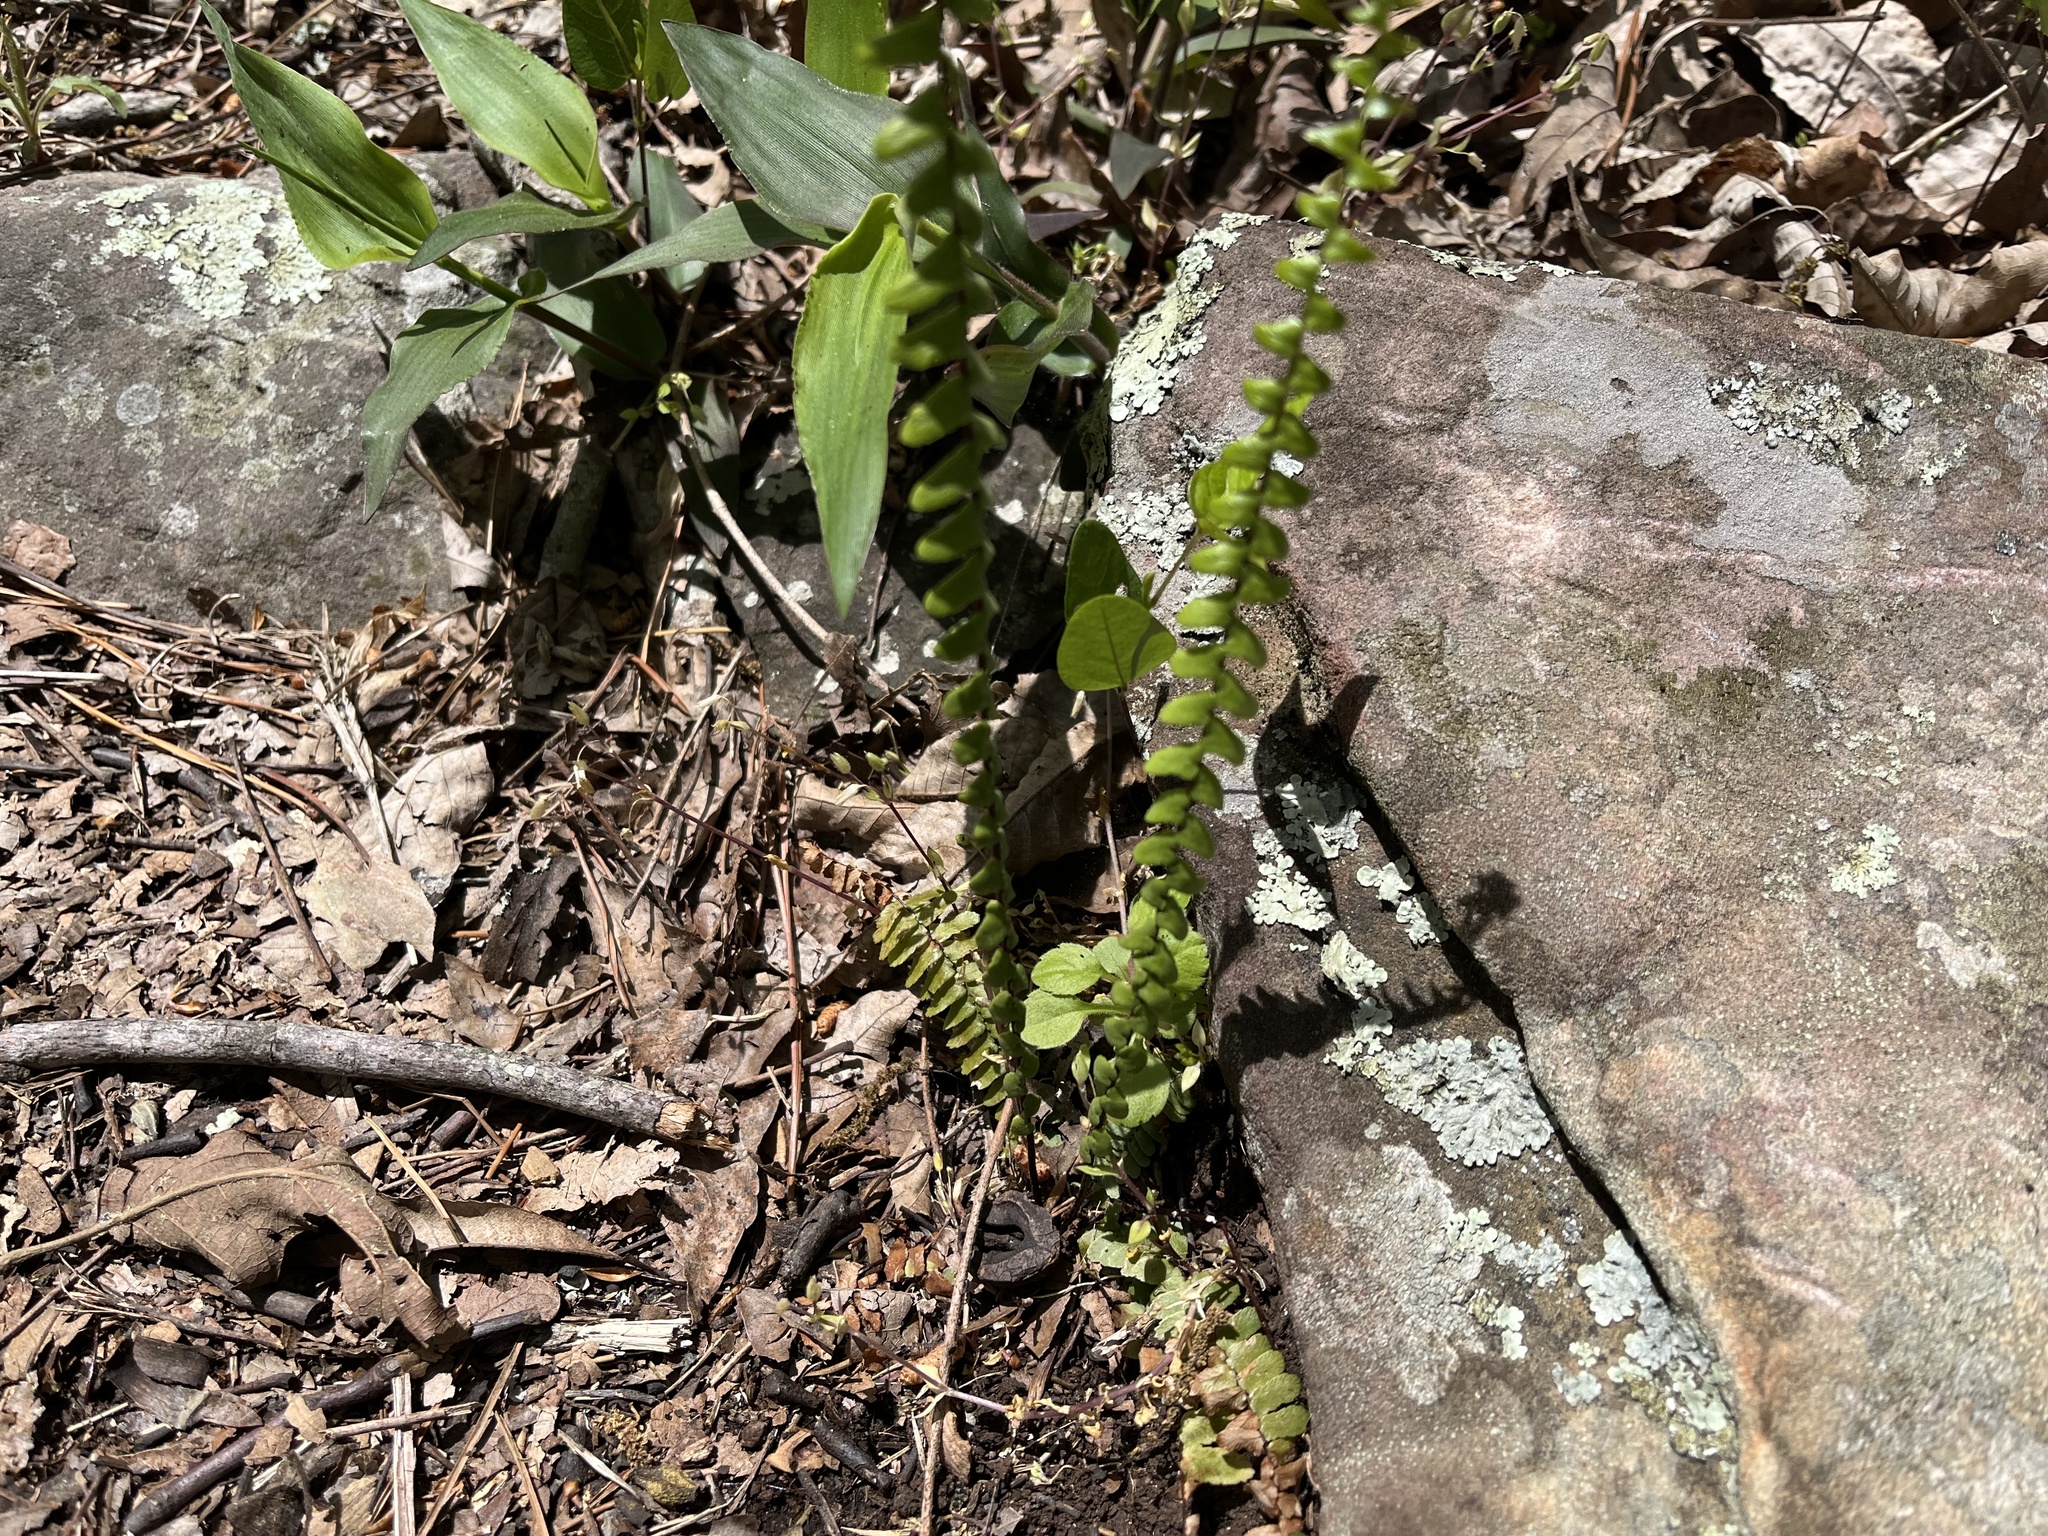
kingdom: Plantae
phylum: Tracheophyta
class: Polypodiopsida
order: Polypodiales
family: Aspleniaceae
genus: Asplenium
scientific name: Asplenium platyneuron
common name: Ebony spleenwort
